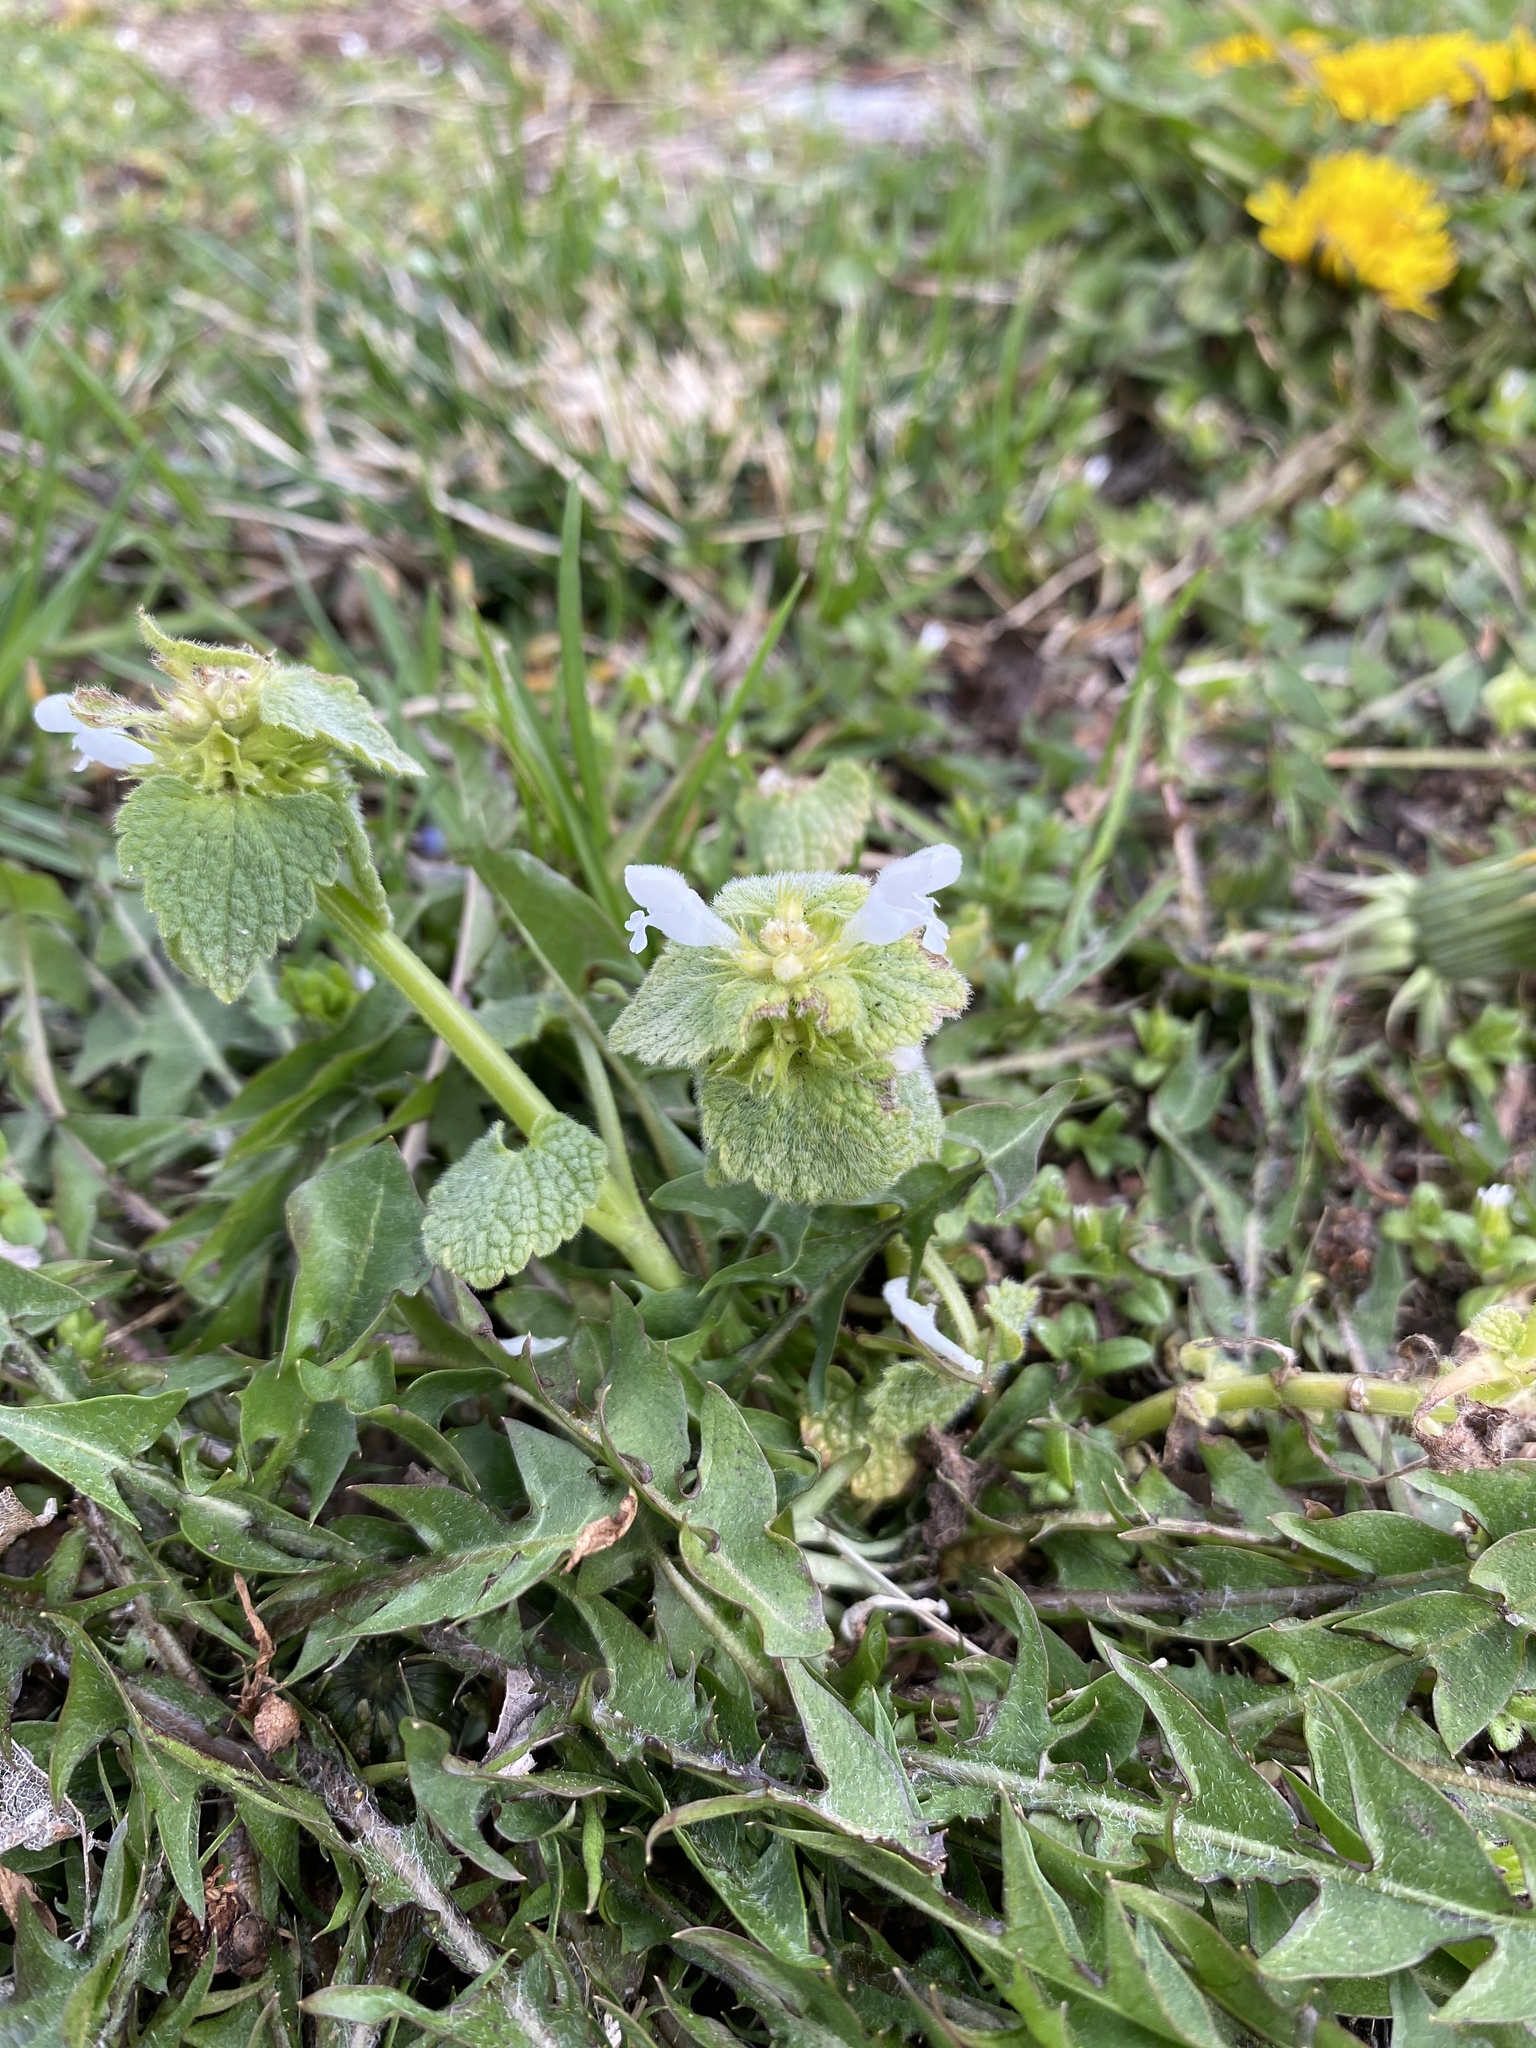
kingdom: Plantae
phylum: Tracheophyta
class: Magnoliopsida
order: Lamiales
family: Lamiaceae
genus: Lamium
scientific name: Lamium purpureum
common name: Red dead-nettle
